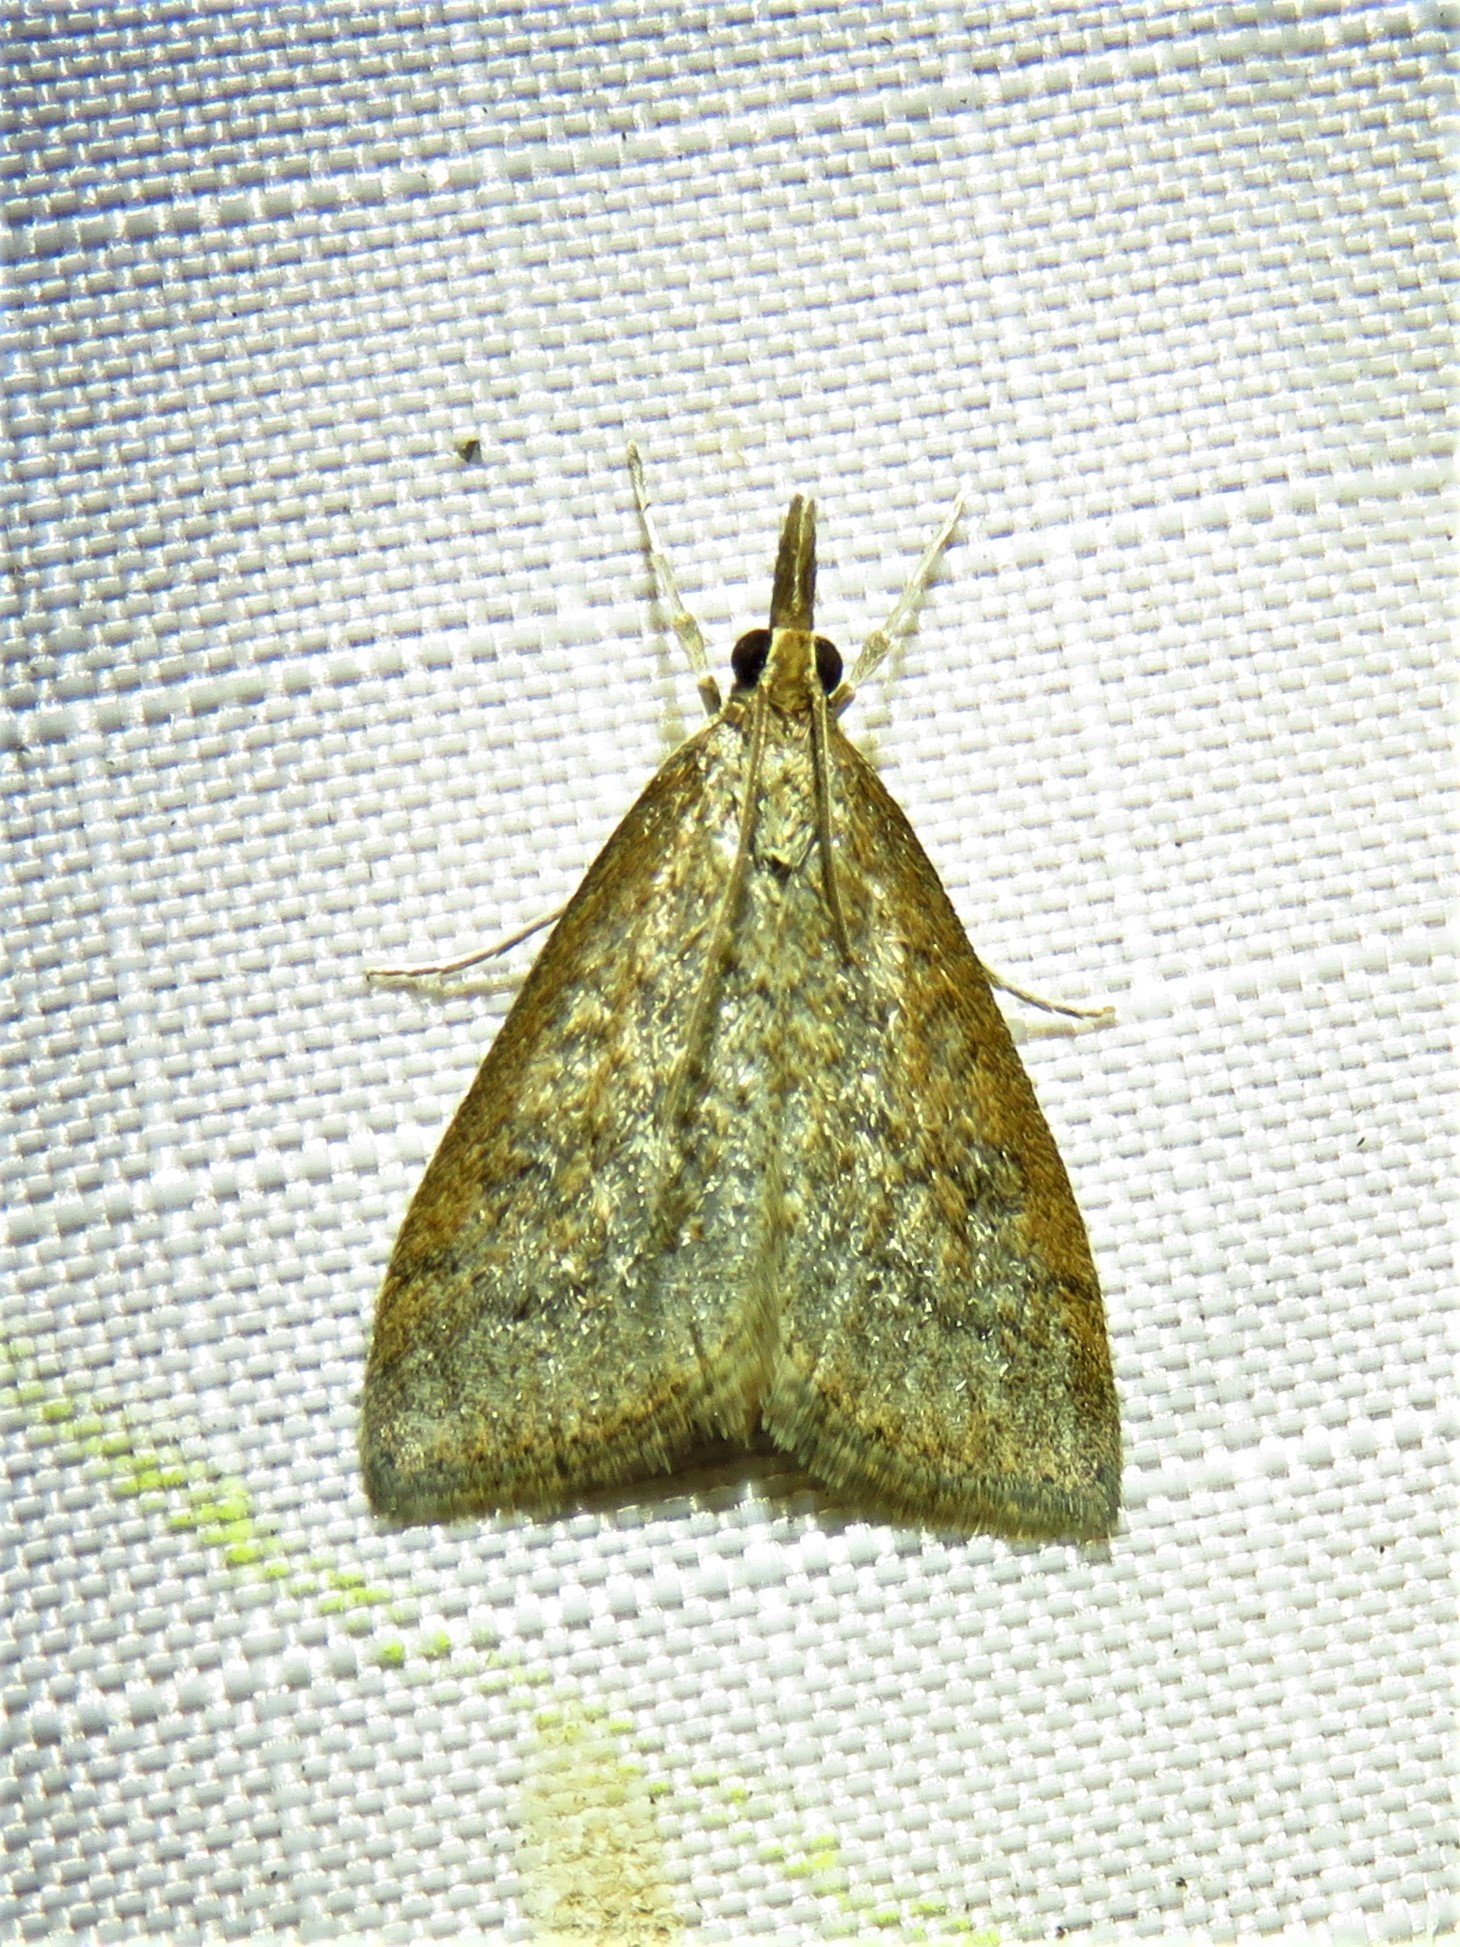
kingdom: Animalia
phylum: Arthropoda
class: Insecta
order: Lepidoptera
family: Crambidae
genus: Udea
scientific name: Udea rubigalis
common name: Celery leaftier moth
